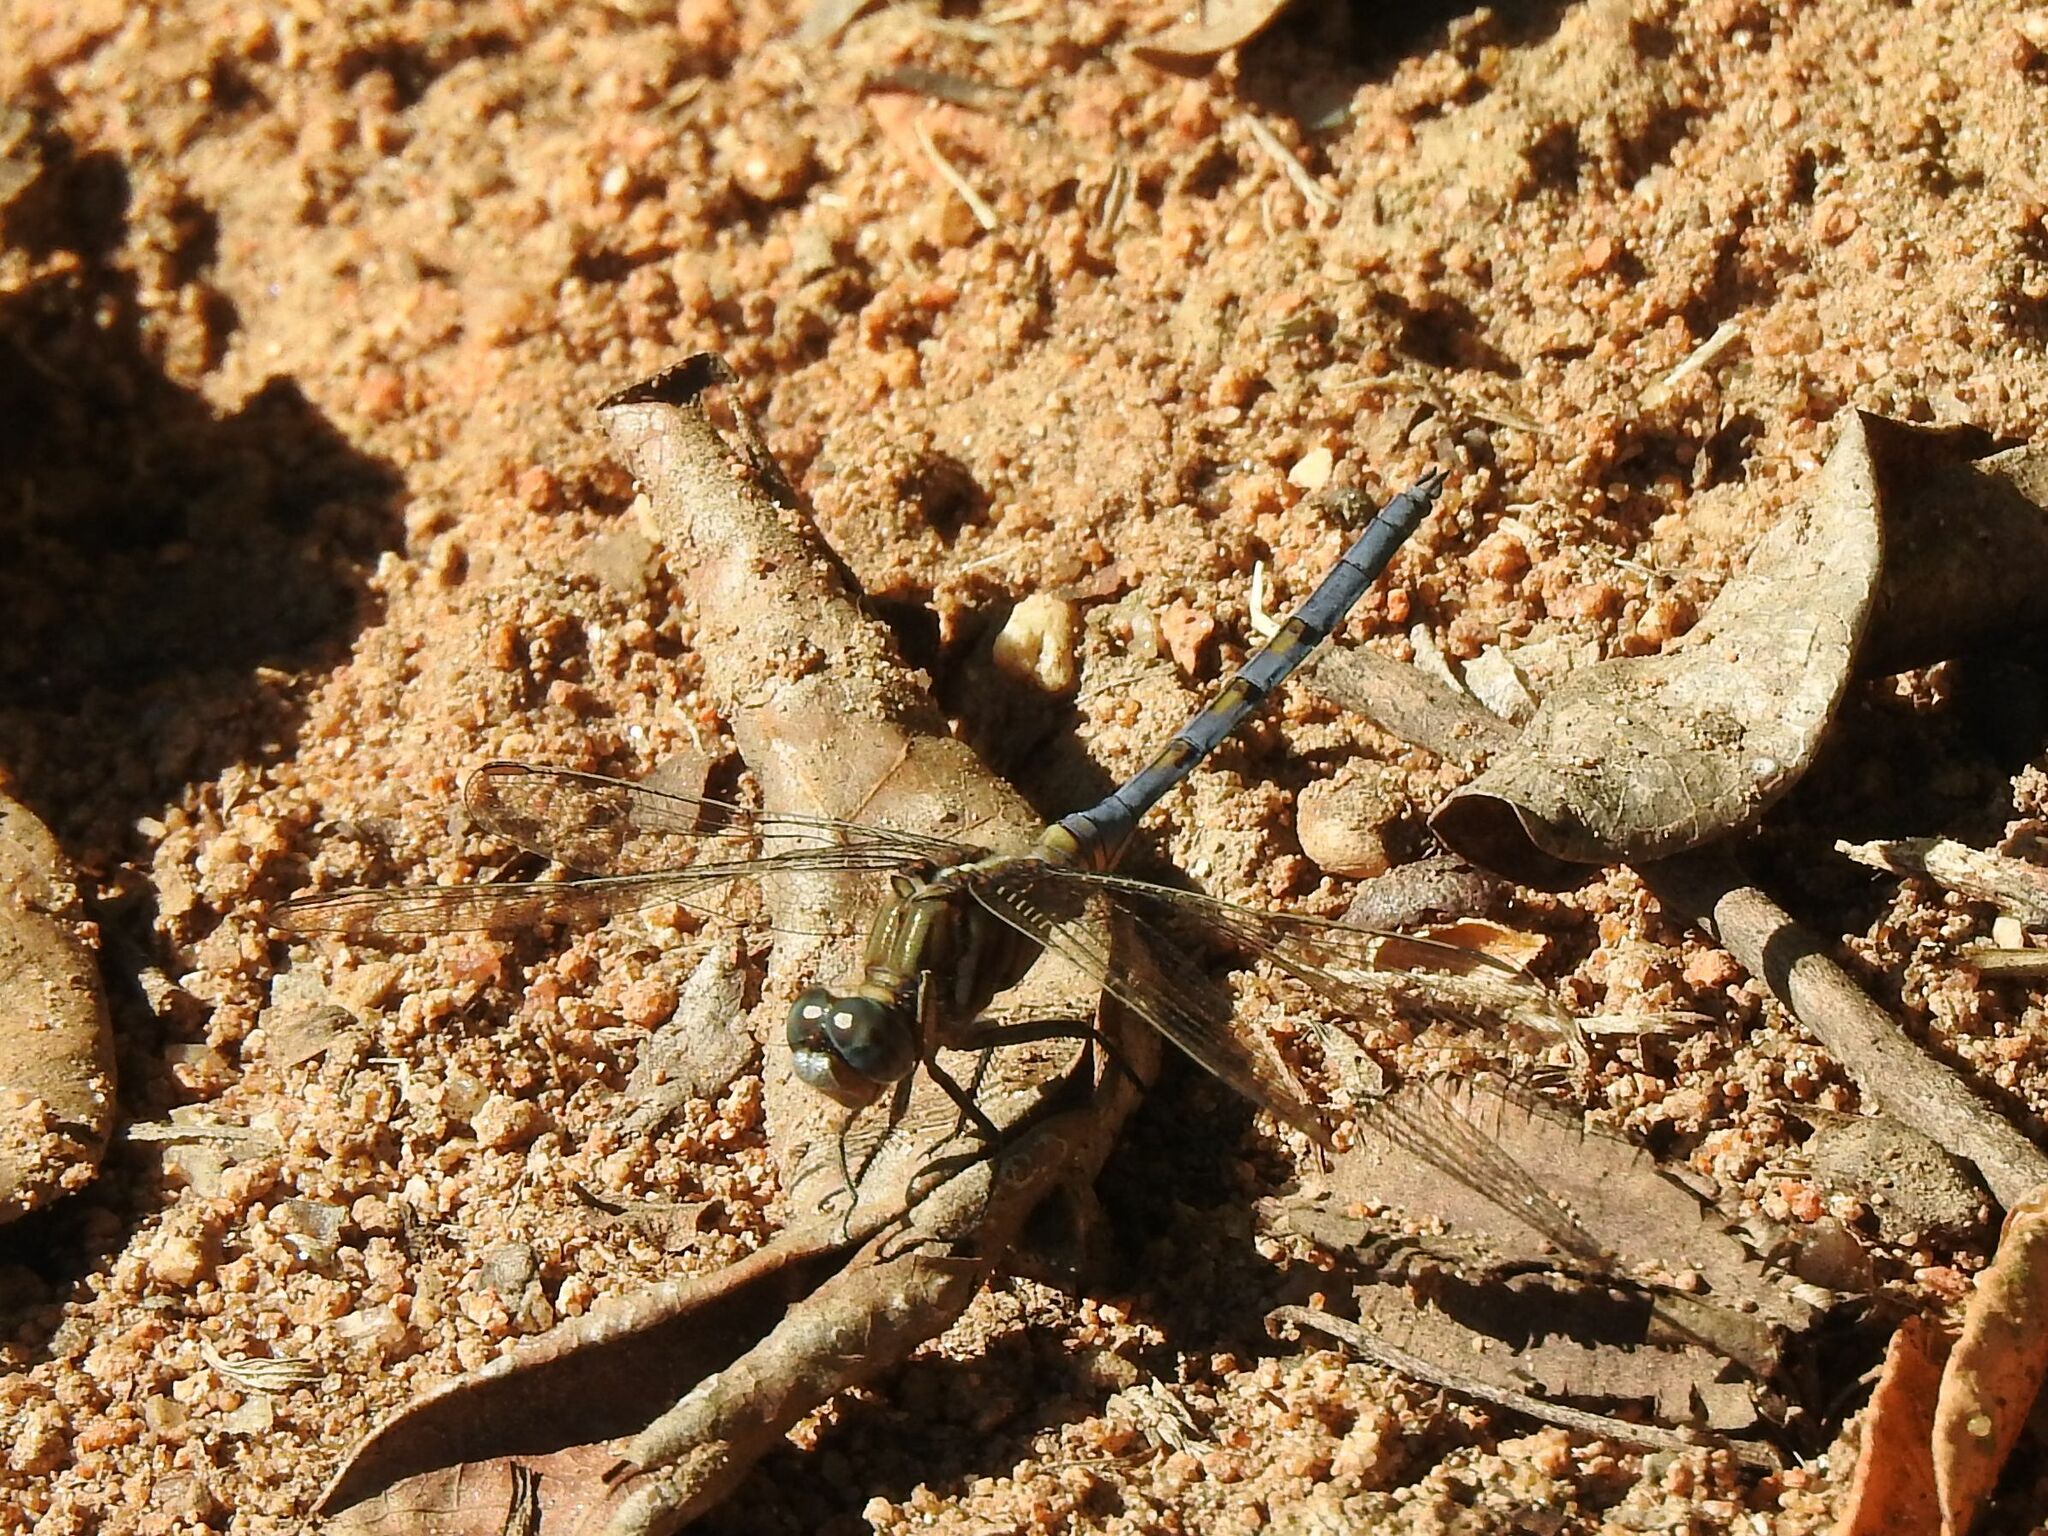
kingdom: Animalia
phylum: Arthropoda
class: Insecta
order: Odonata
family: Libellulidae
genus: Orthetrum
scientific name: Orthetrum chrysostigma
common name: Epaulet skimmer
